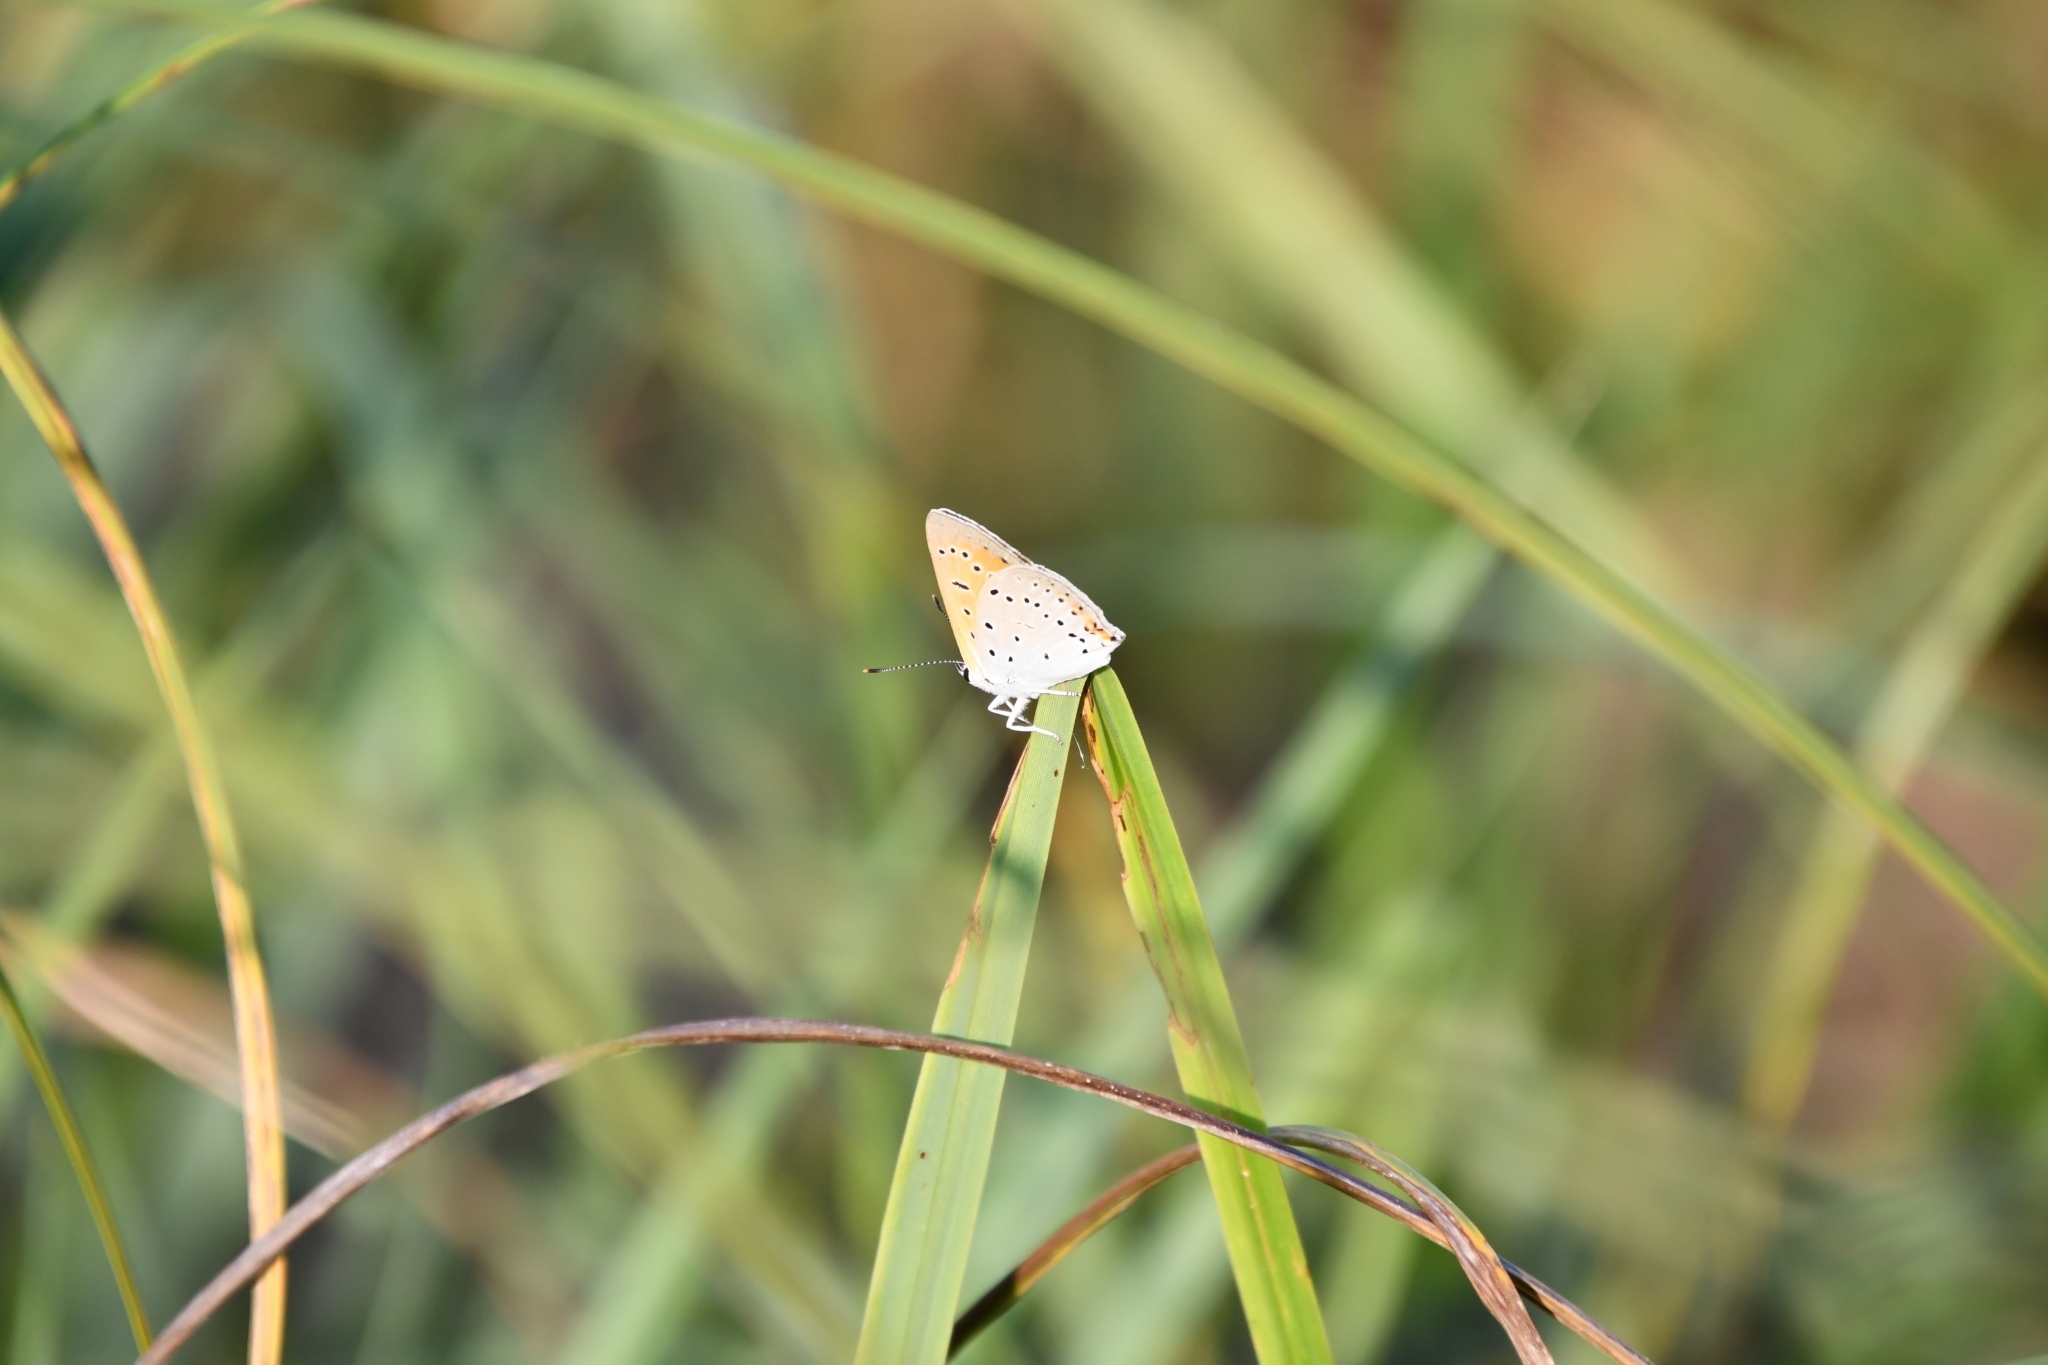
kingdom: Animalia
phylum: Arthropoda
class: Insecta
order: Lepidoptera
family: Lycaenidae
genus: Lycaena
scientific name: Lycaena dispar
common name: Large copper
